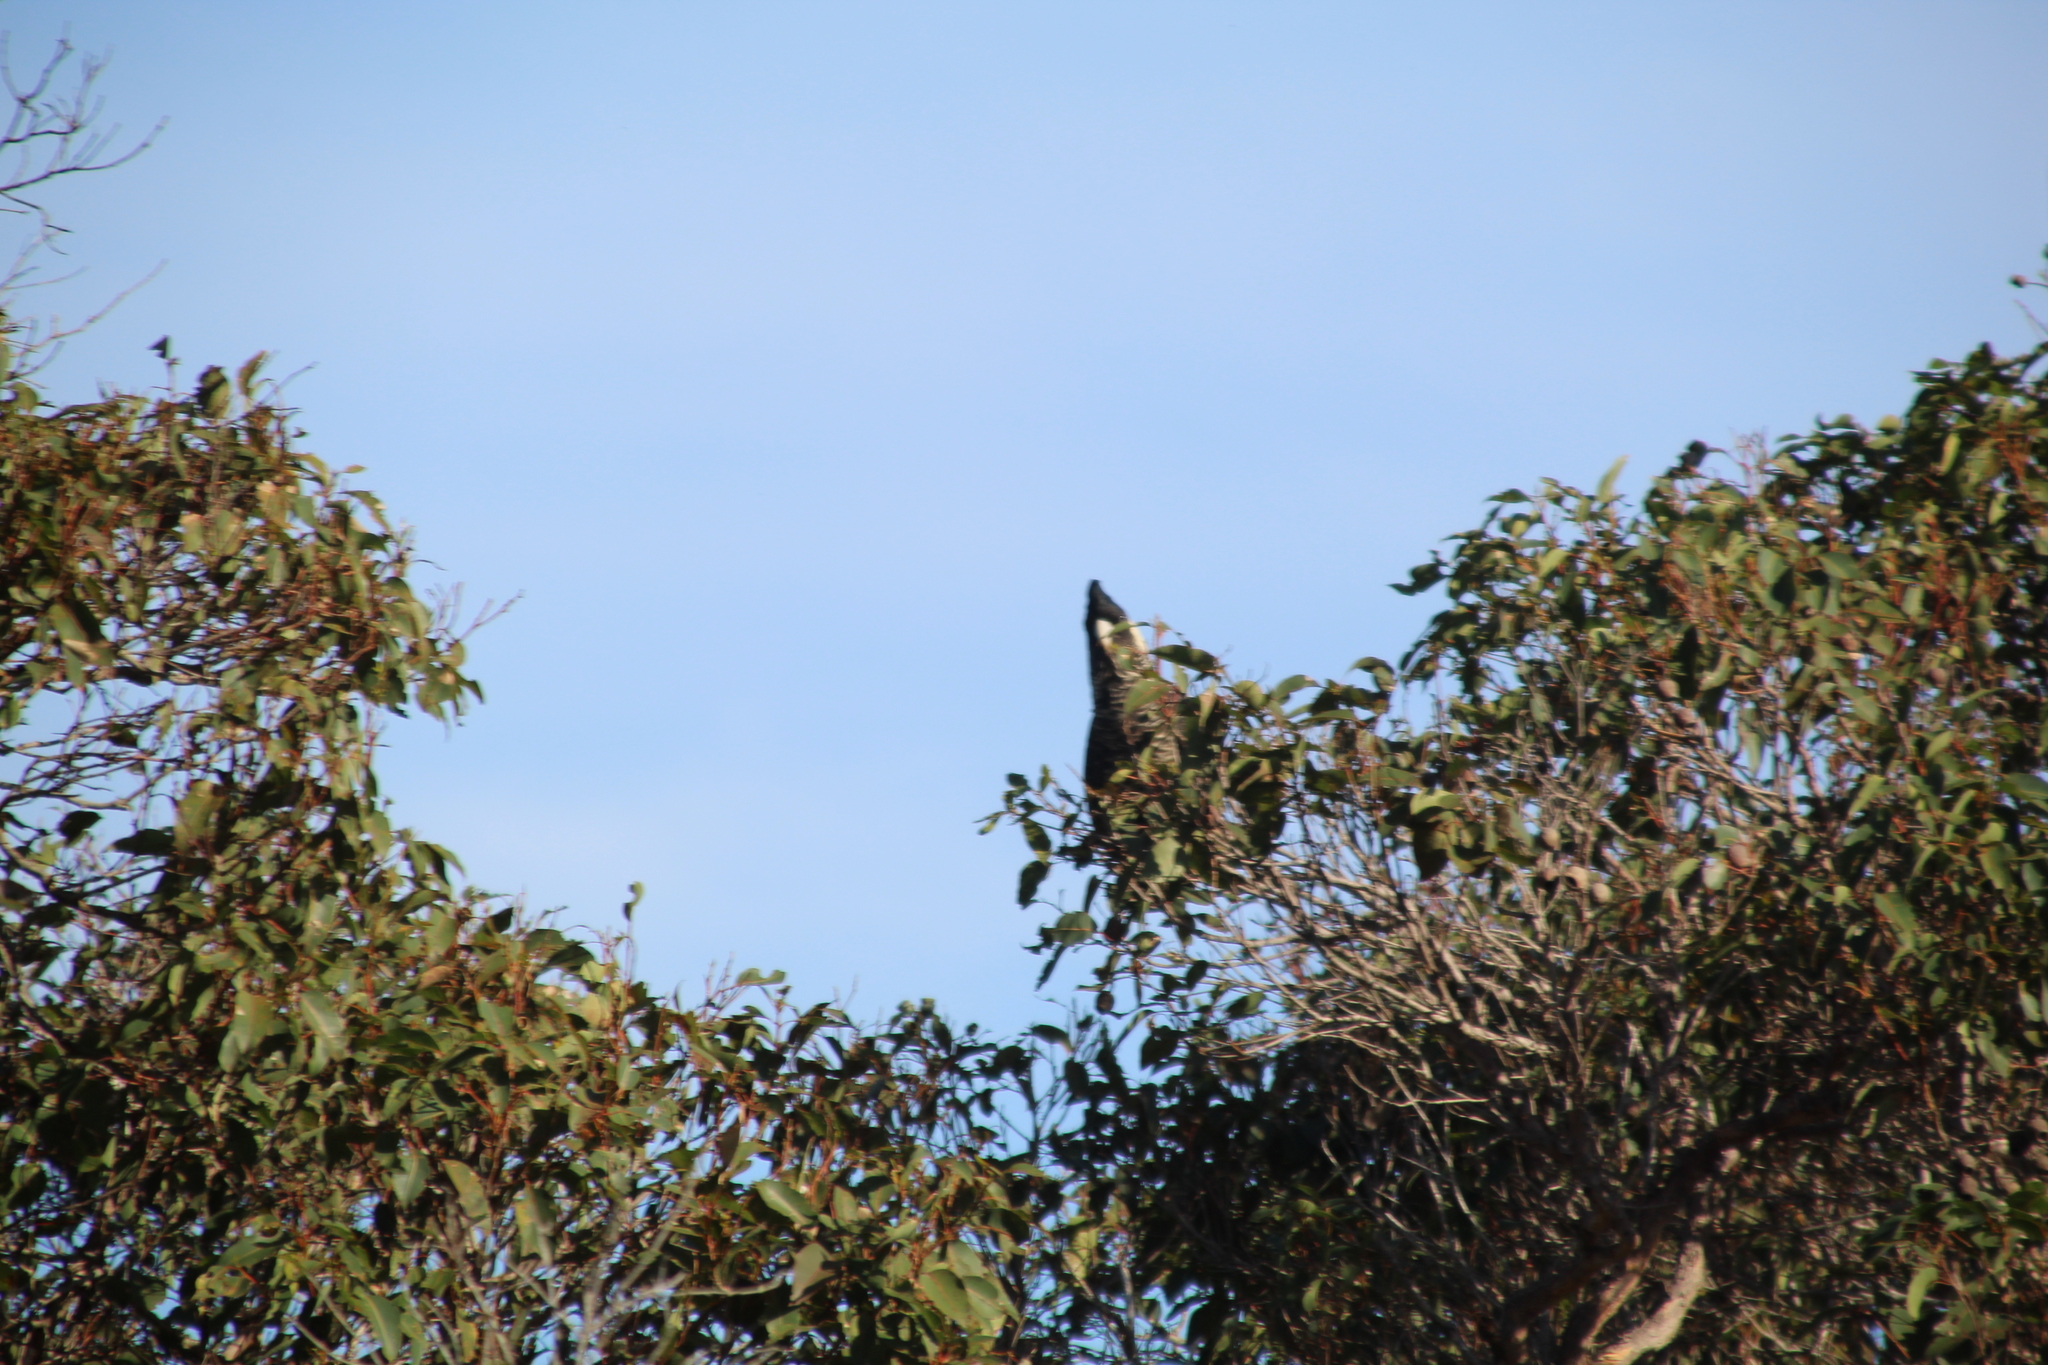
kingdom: Animalia
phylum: Chordata
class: Aves
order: Psittaciformes
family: Cacatuidae
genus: Zanda
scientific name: Zanda latirostris
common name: Short-billed black-cockatoo
